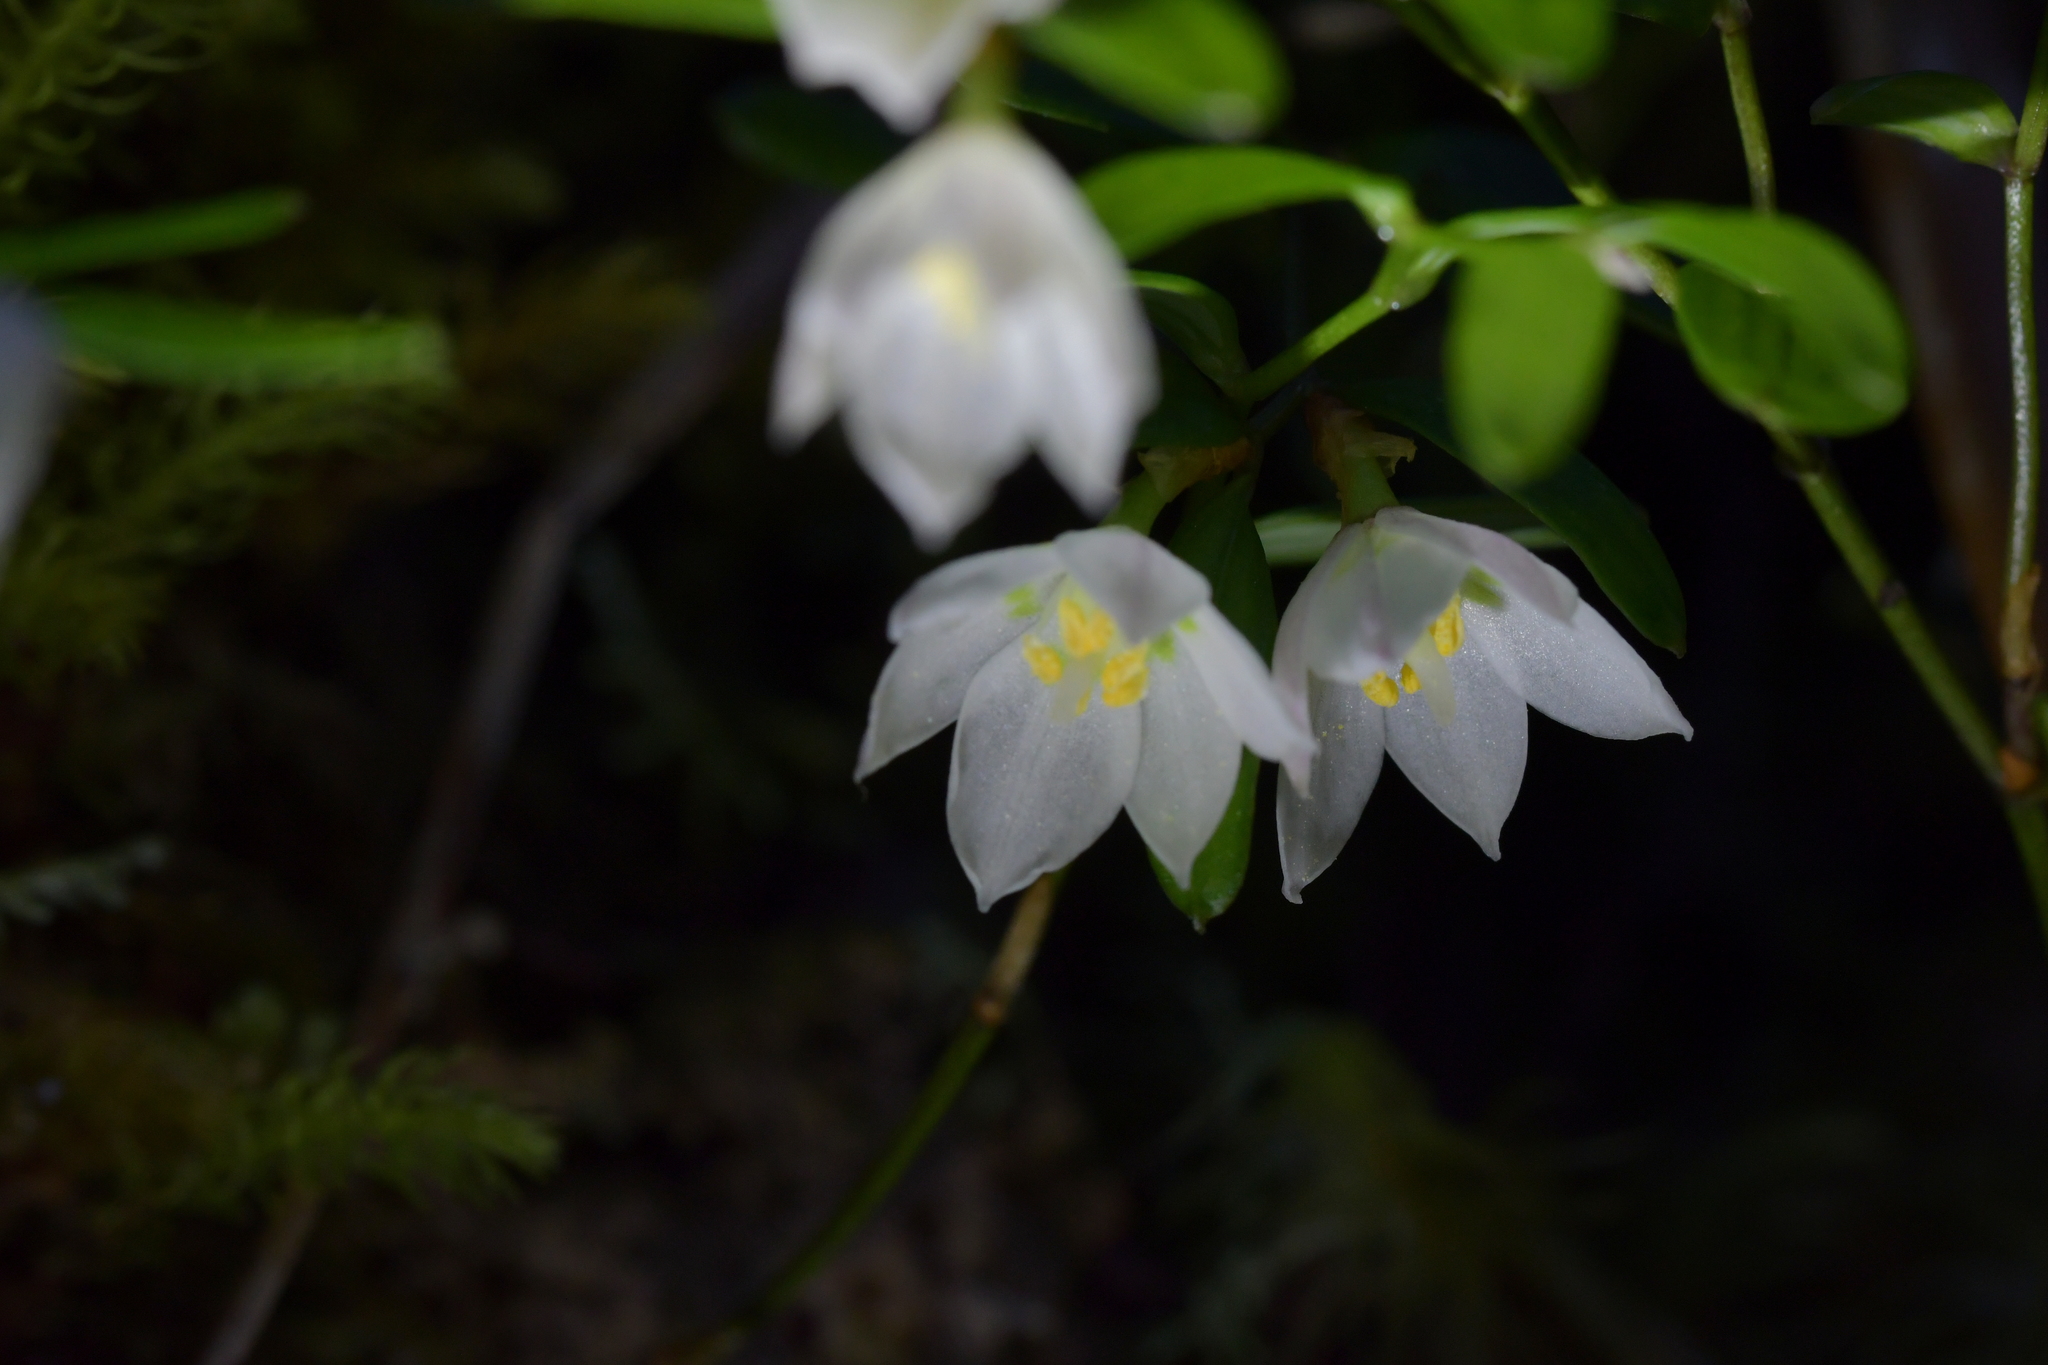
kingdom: Plantae
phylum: Tracheophyta
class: Liliopsida
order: Liliales
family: Alstroemeriaceae
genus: Luzuriaga
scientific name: Luzuriaga parviflora
